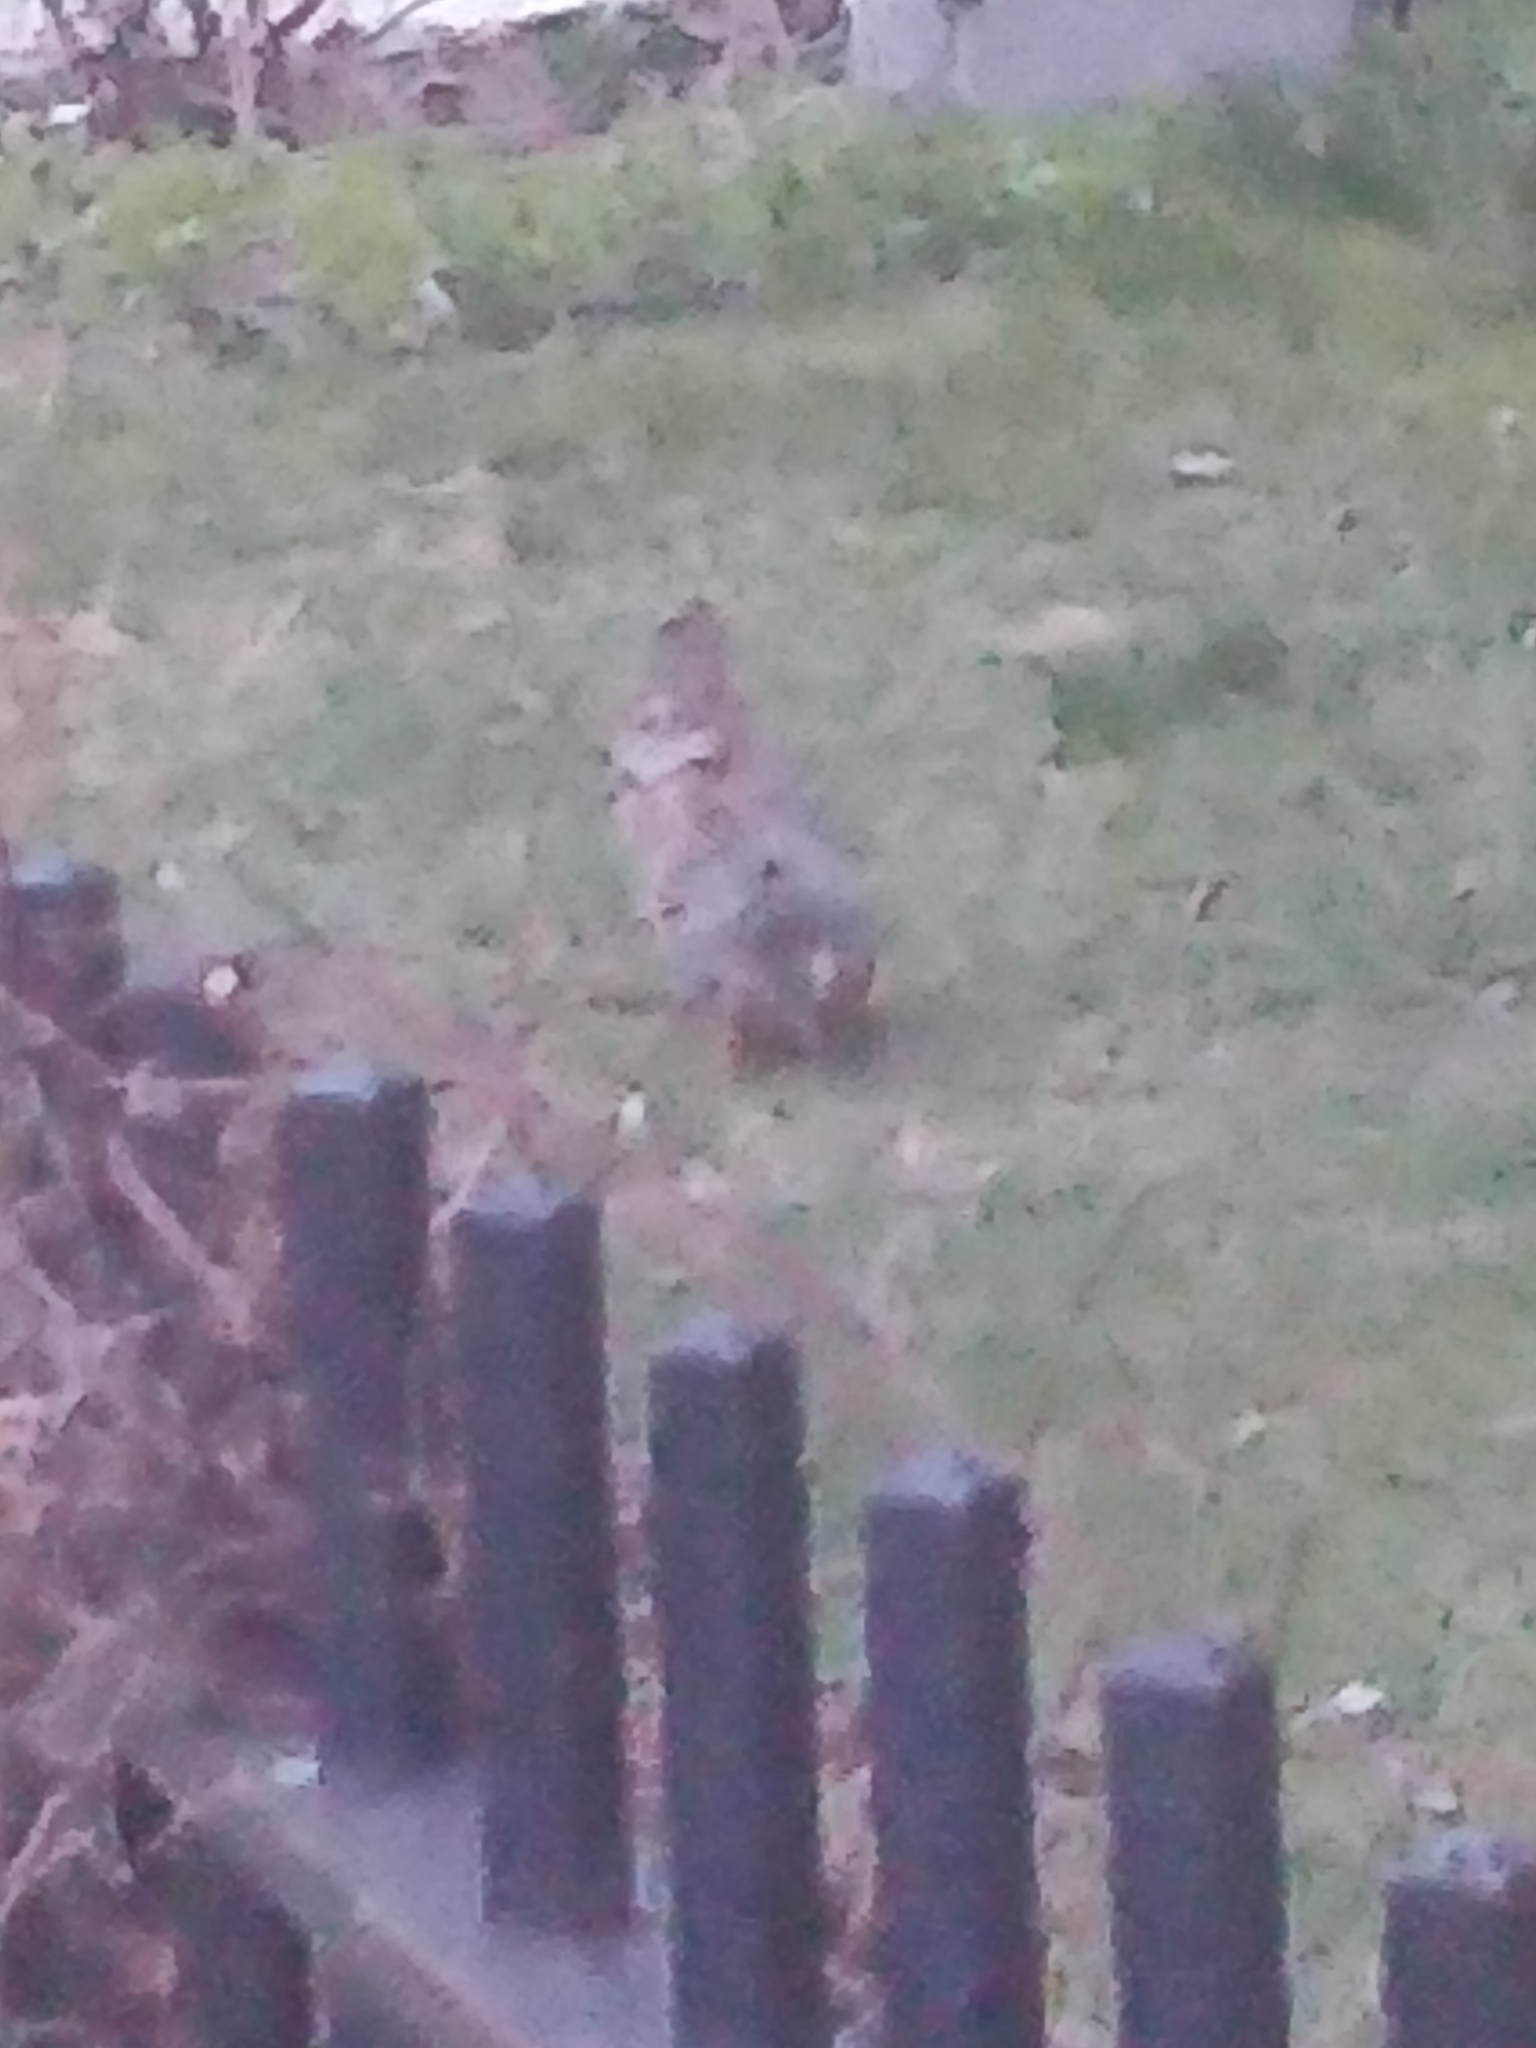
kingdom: Animalia
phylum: Chordata
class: Mammalia
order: Lagomorpha
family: Leporidae
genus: Sylvilagus
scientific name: Sylvilagus floridanus
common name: Eastern cottontail
